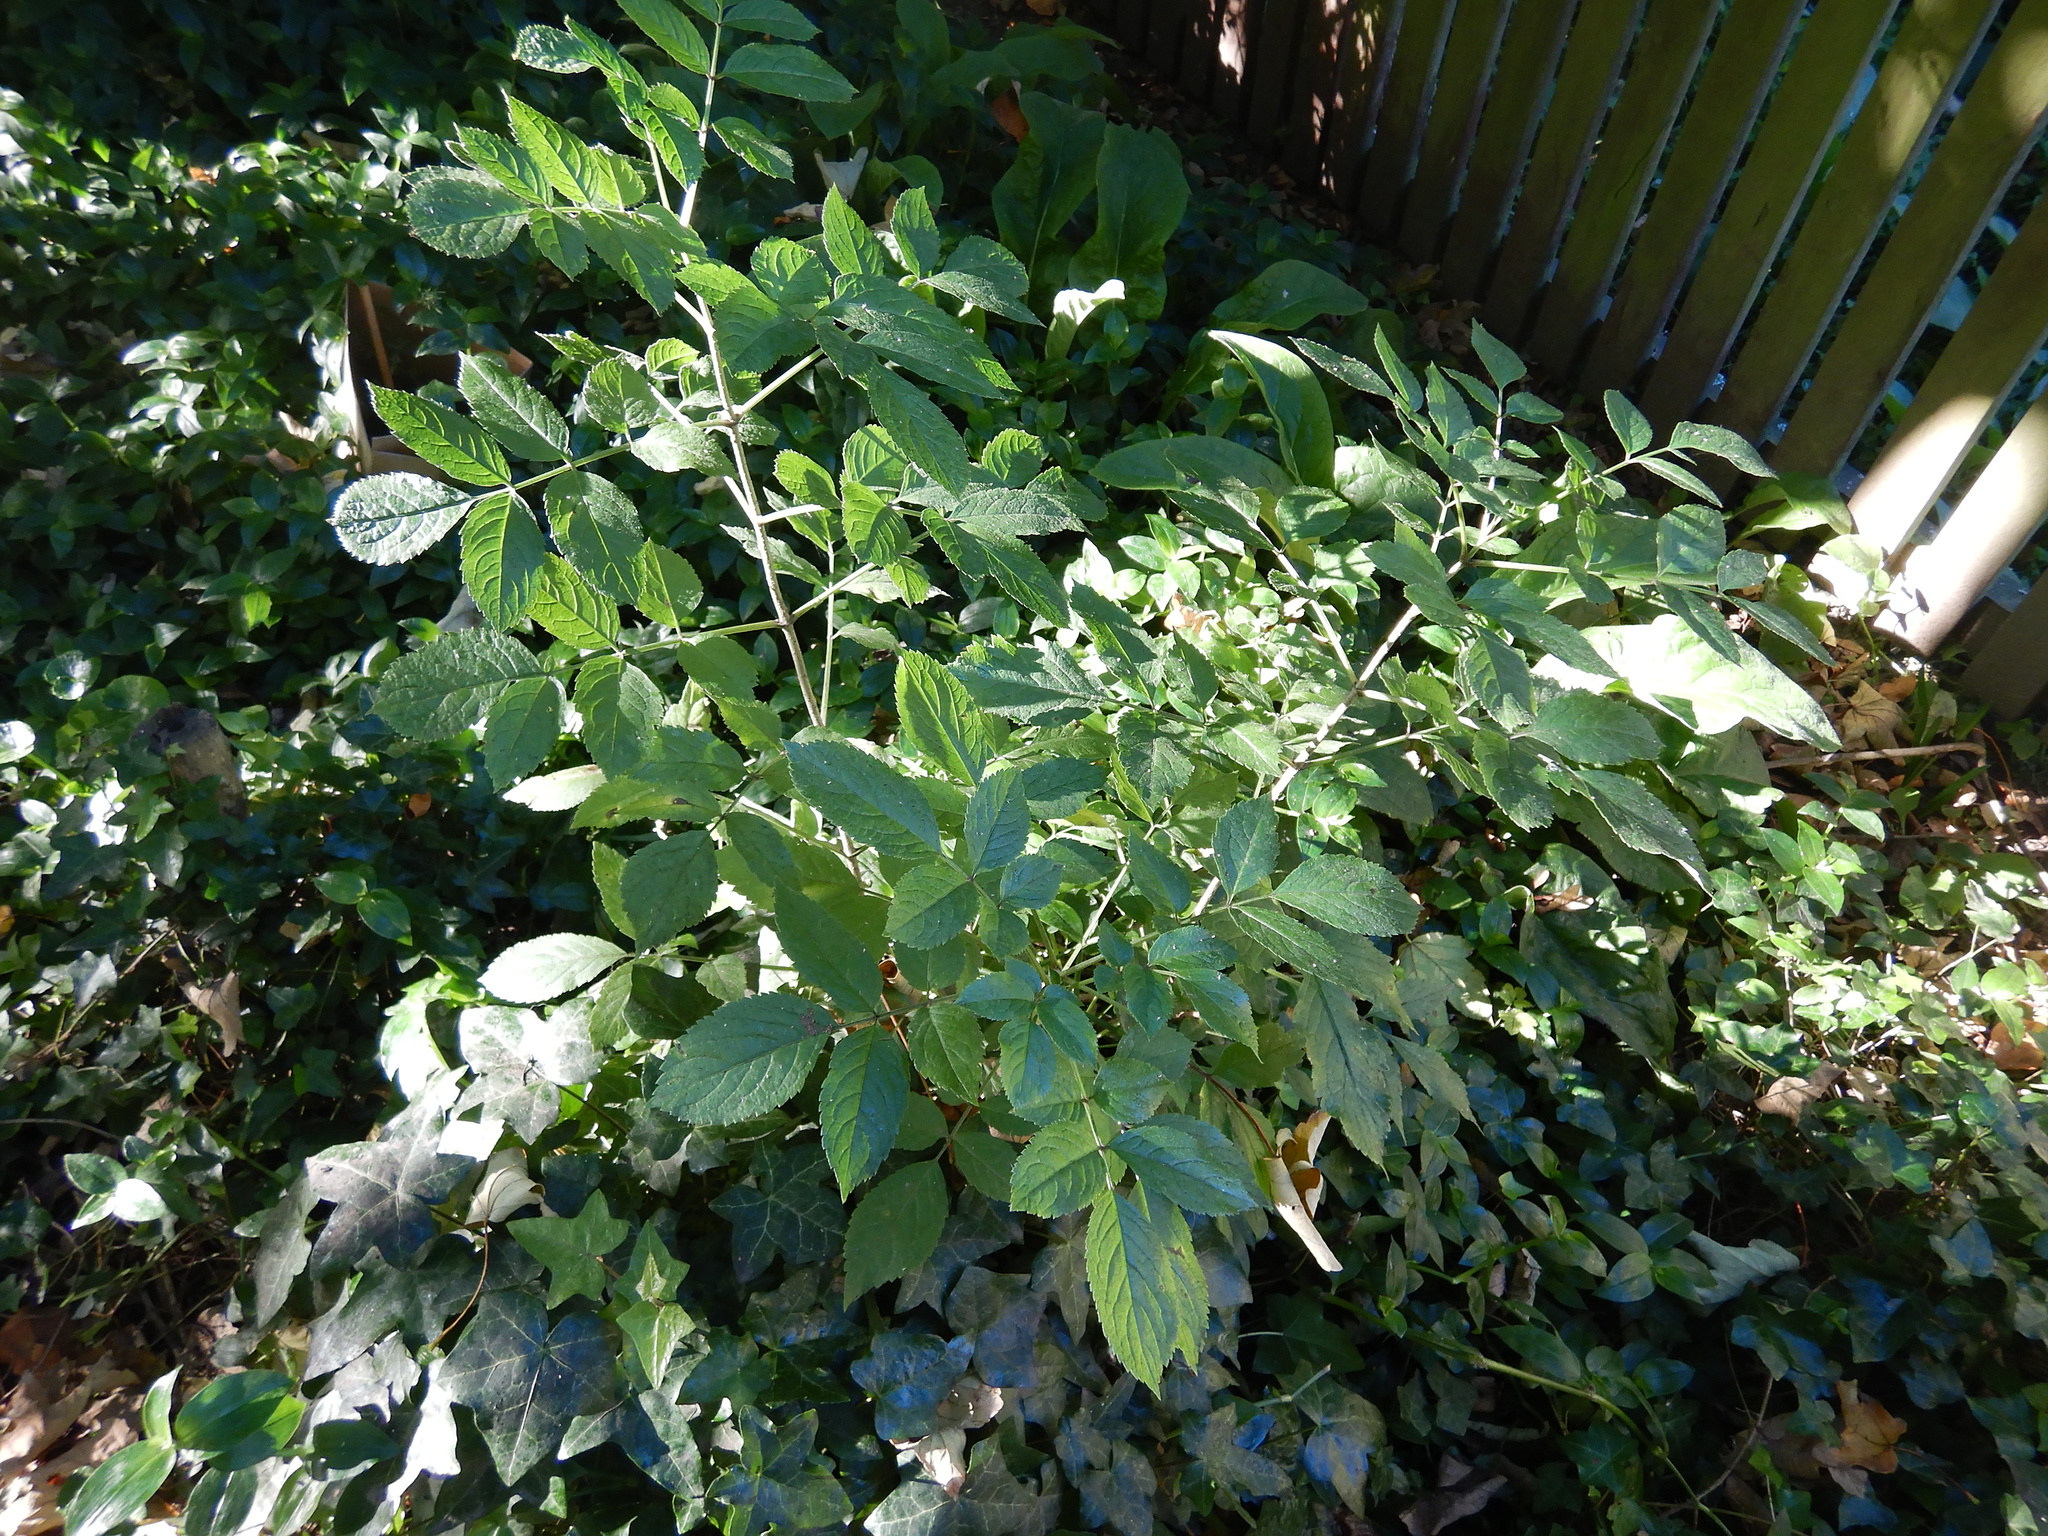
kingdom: Plantae
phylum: Tracheophyta
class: Magnoliopsida
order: Dipsacales
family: Viburnaceae
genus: Sambucus
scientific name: Sambucus nigra
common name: Elder
